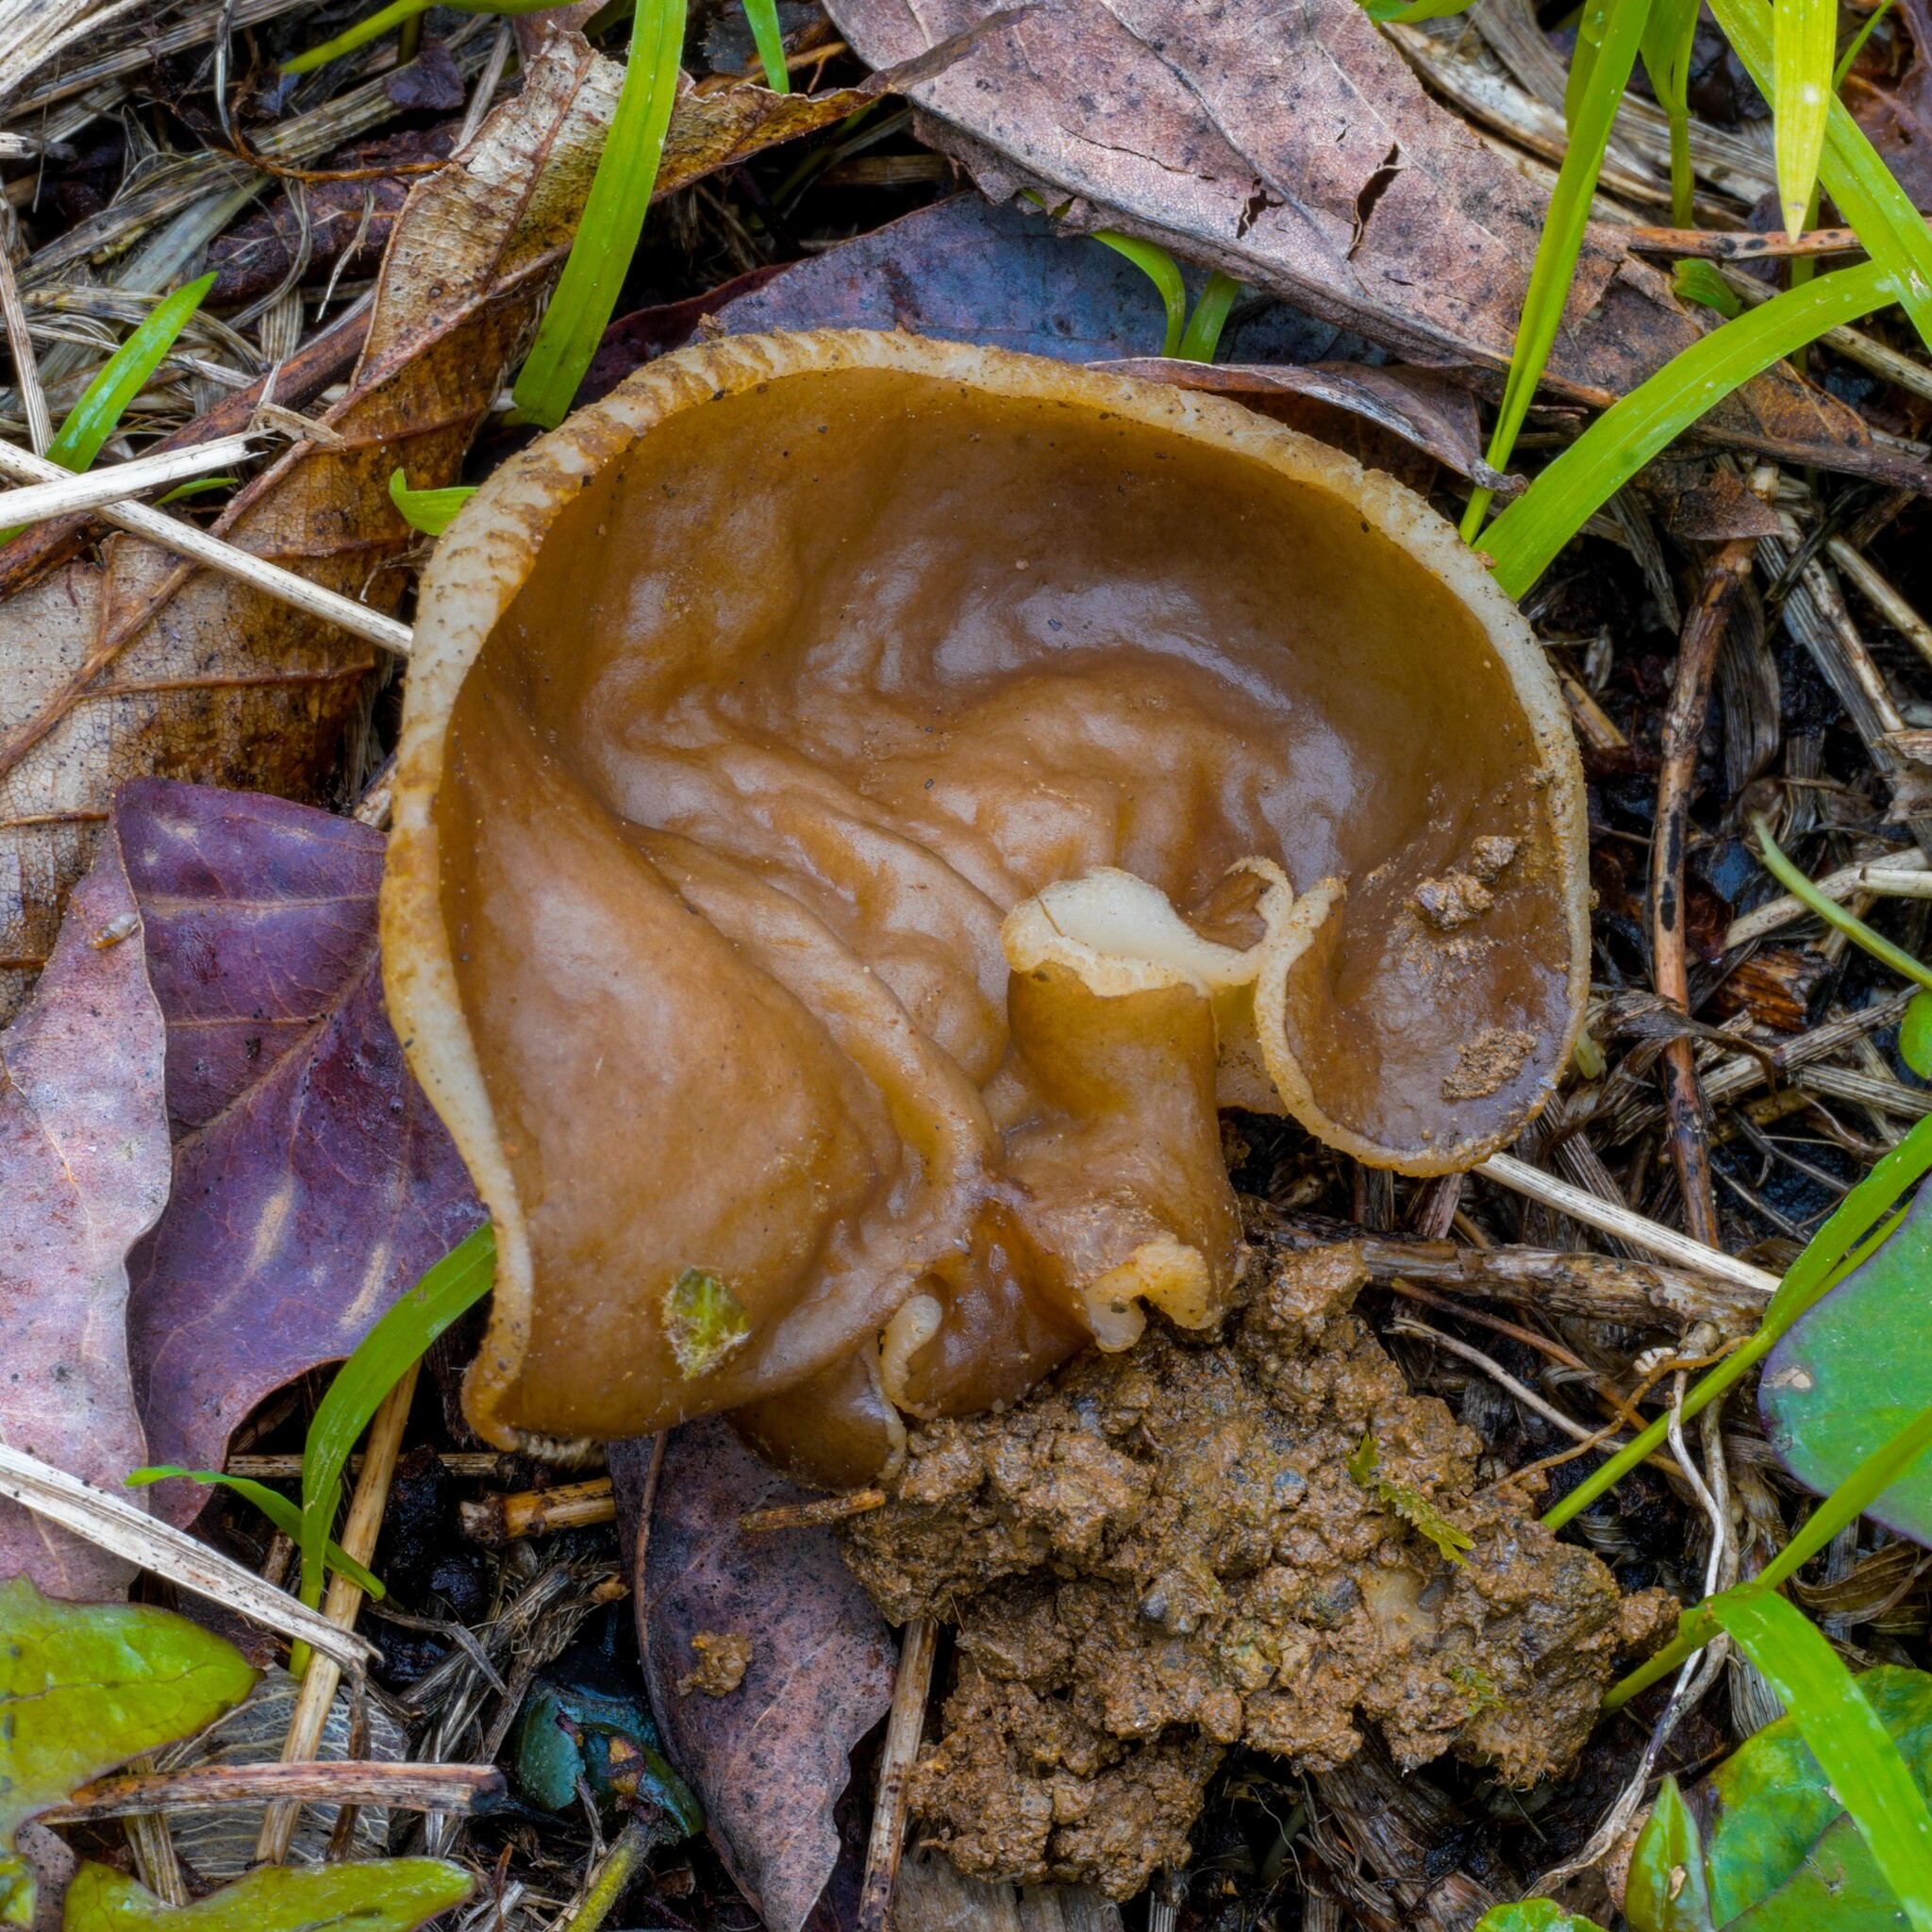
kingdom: Fungi
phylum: Ascomycota
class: Pezizomycetes
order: Pezizales
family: Morchellaceae
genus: Disciotis
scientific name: Disciotis venosa
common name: Bleach cup
